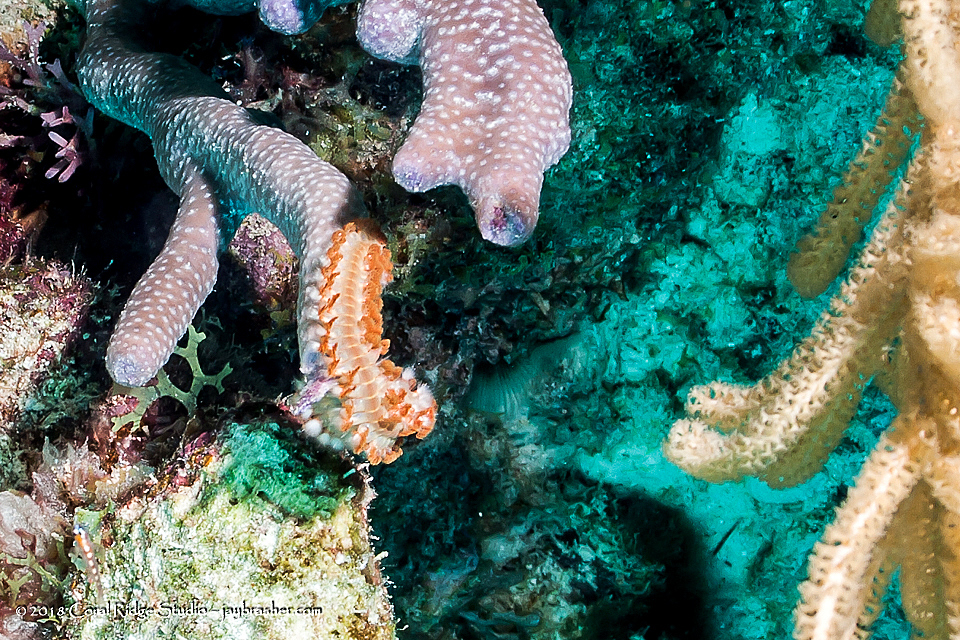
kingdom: Animalia
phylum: Annelida
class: Polychaeta
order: Amphinomida
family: Amphinomidae
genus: Hermodice
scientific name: Hermodice carunculata
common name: Bearded fireworm
